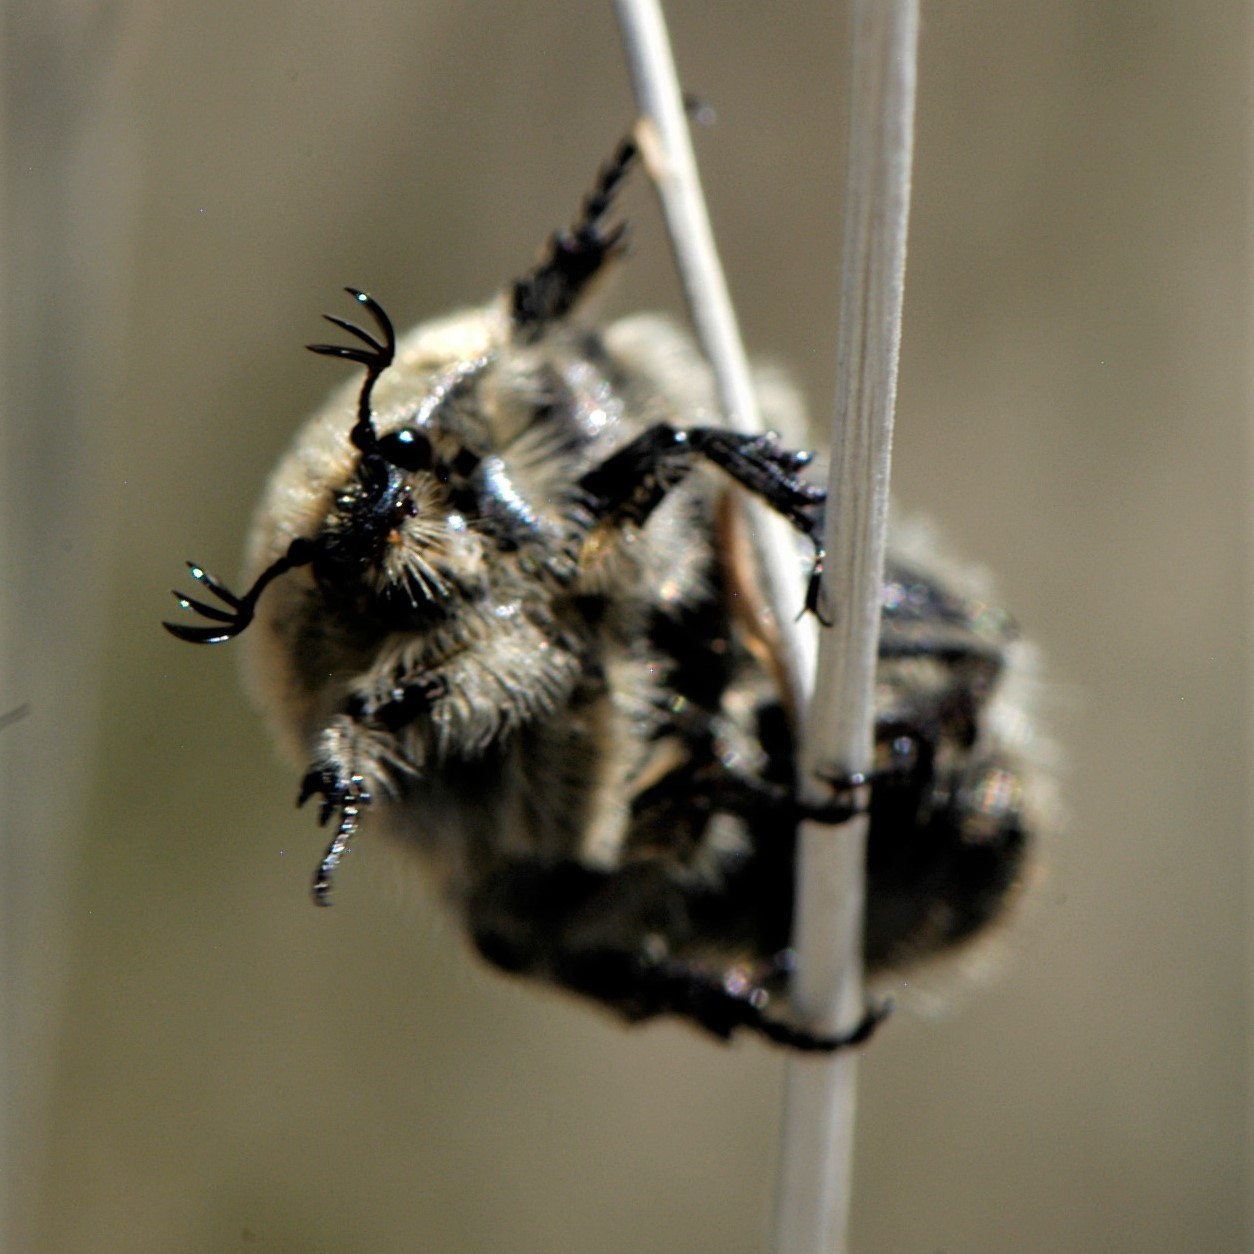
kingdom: Animalia
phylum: Arthropoda
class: Insecta
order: Coleoptera
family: Scarabaeidae
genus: Euphoria
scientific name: Euphoria inda
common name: Bumble flower beetle
